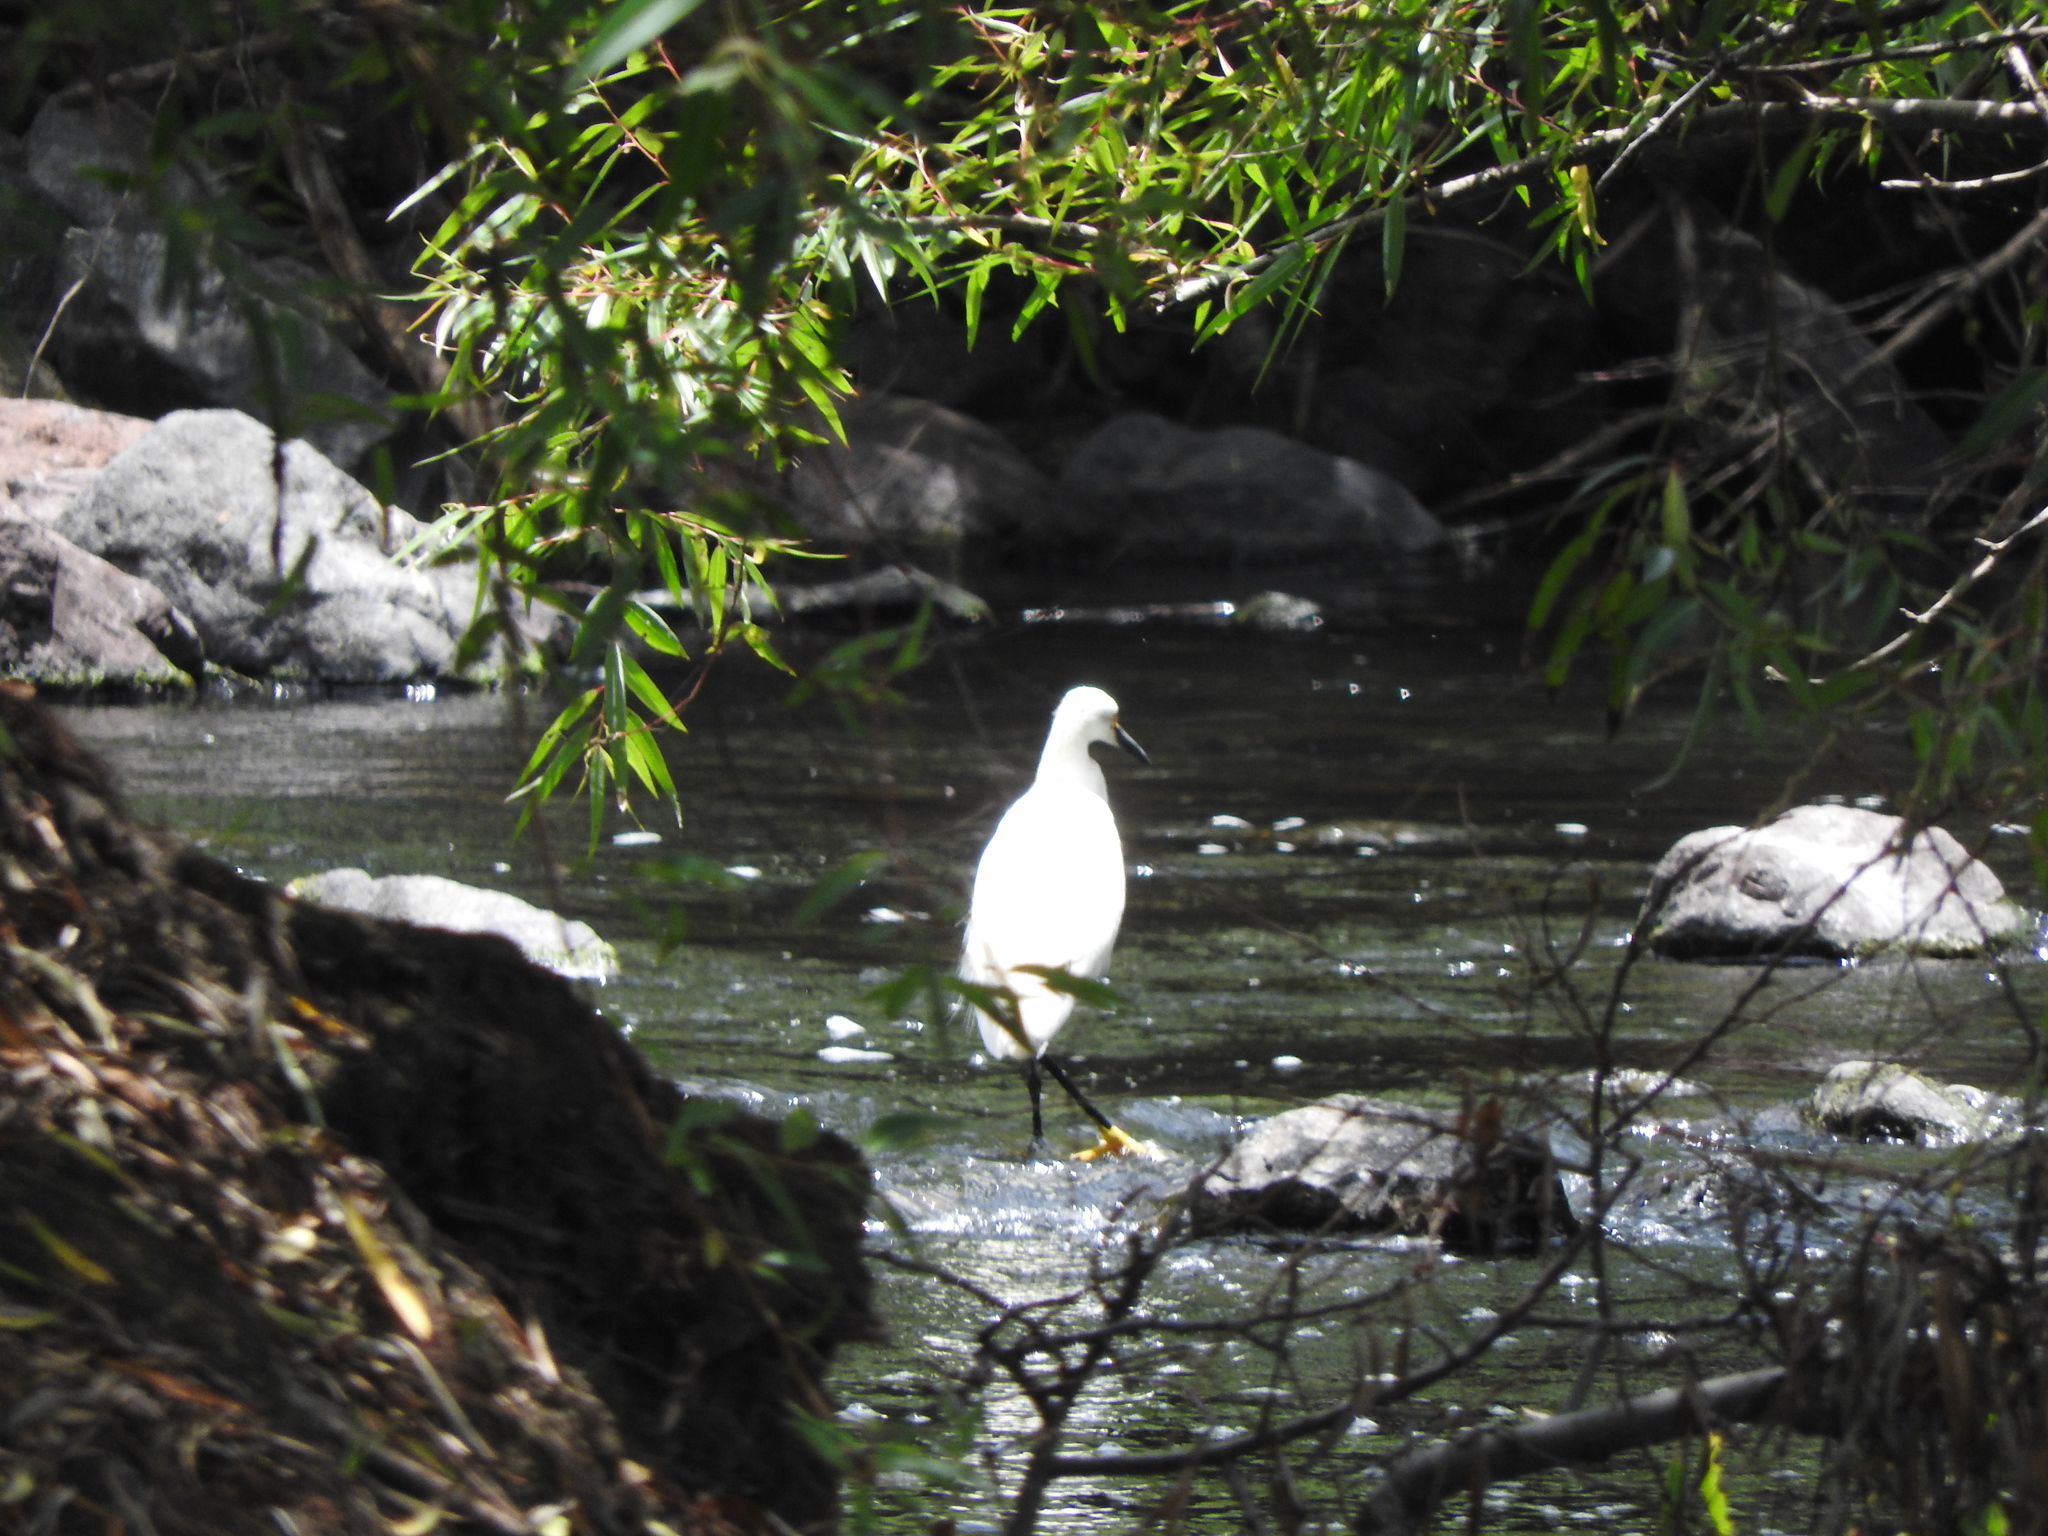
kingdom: Animalia
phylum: Chordata
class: Aves
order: Pelecaniformes
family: Ardeidae
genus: Egretta
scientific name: Egretta thula
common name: Snowy egret
